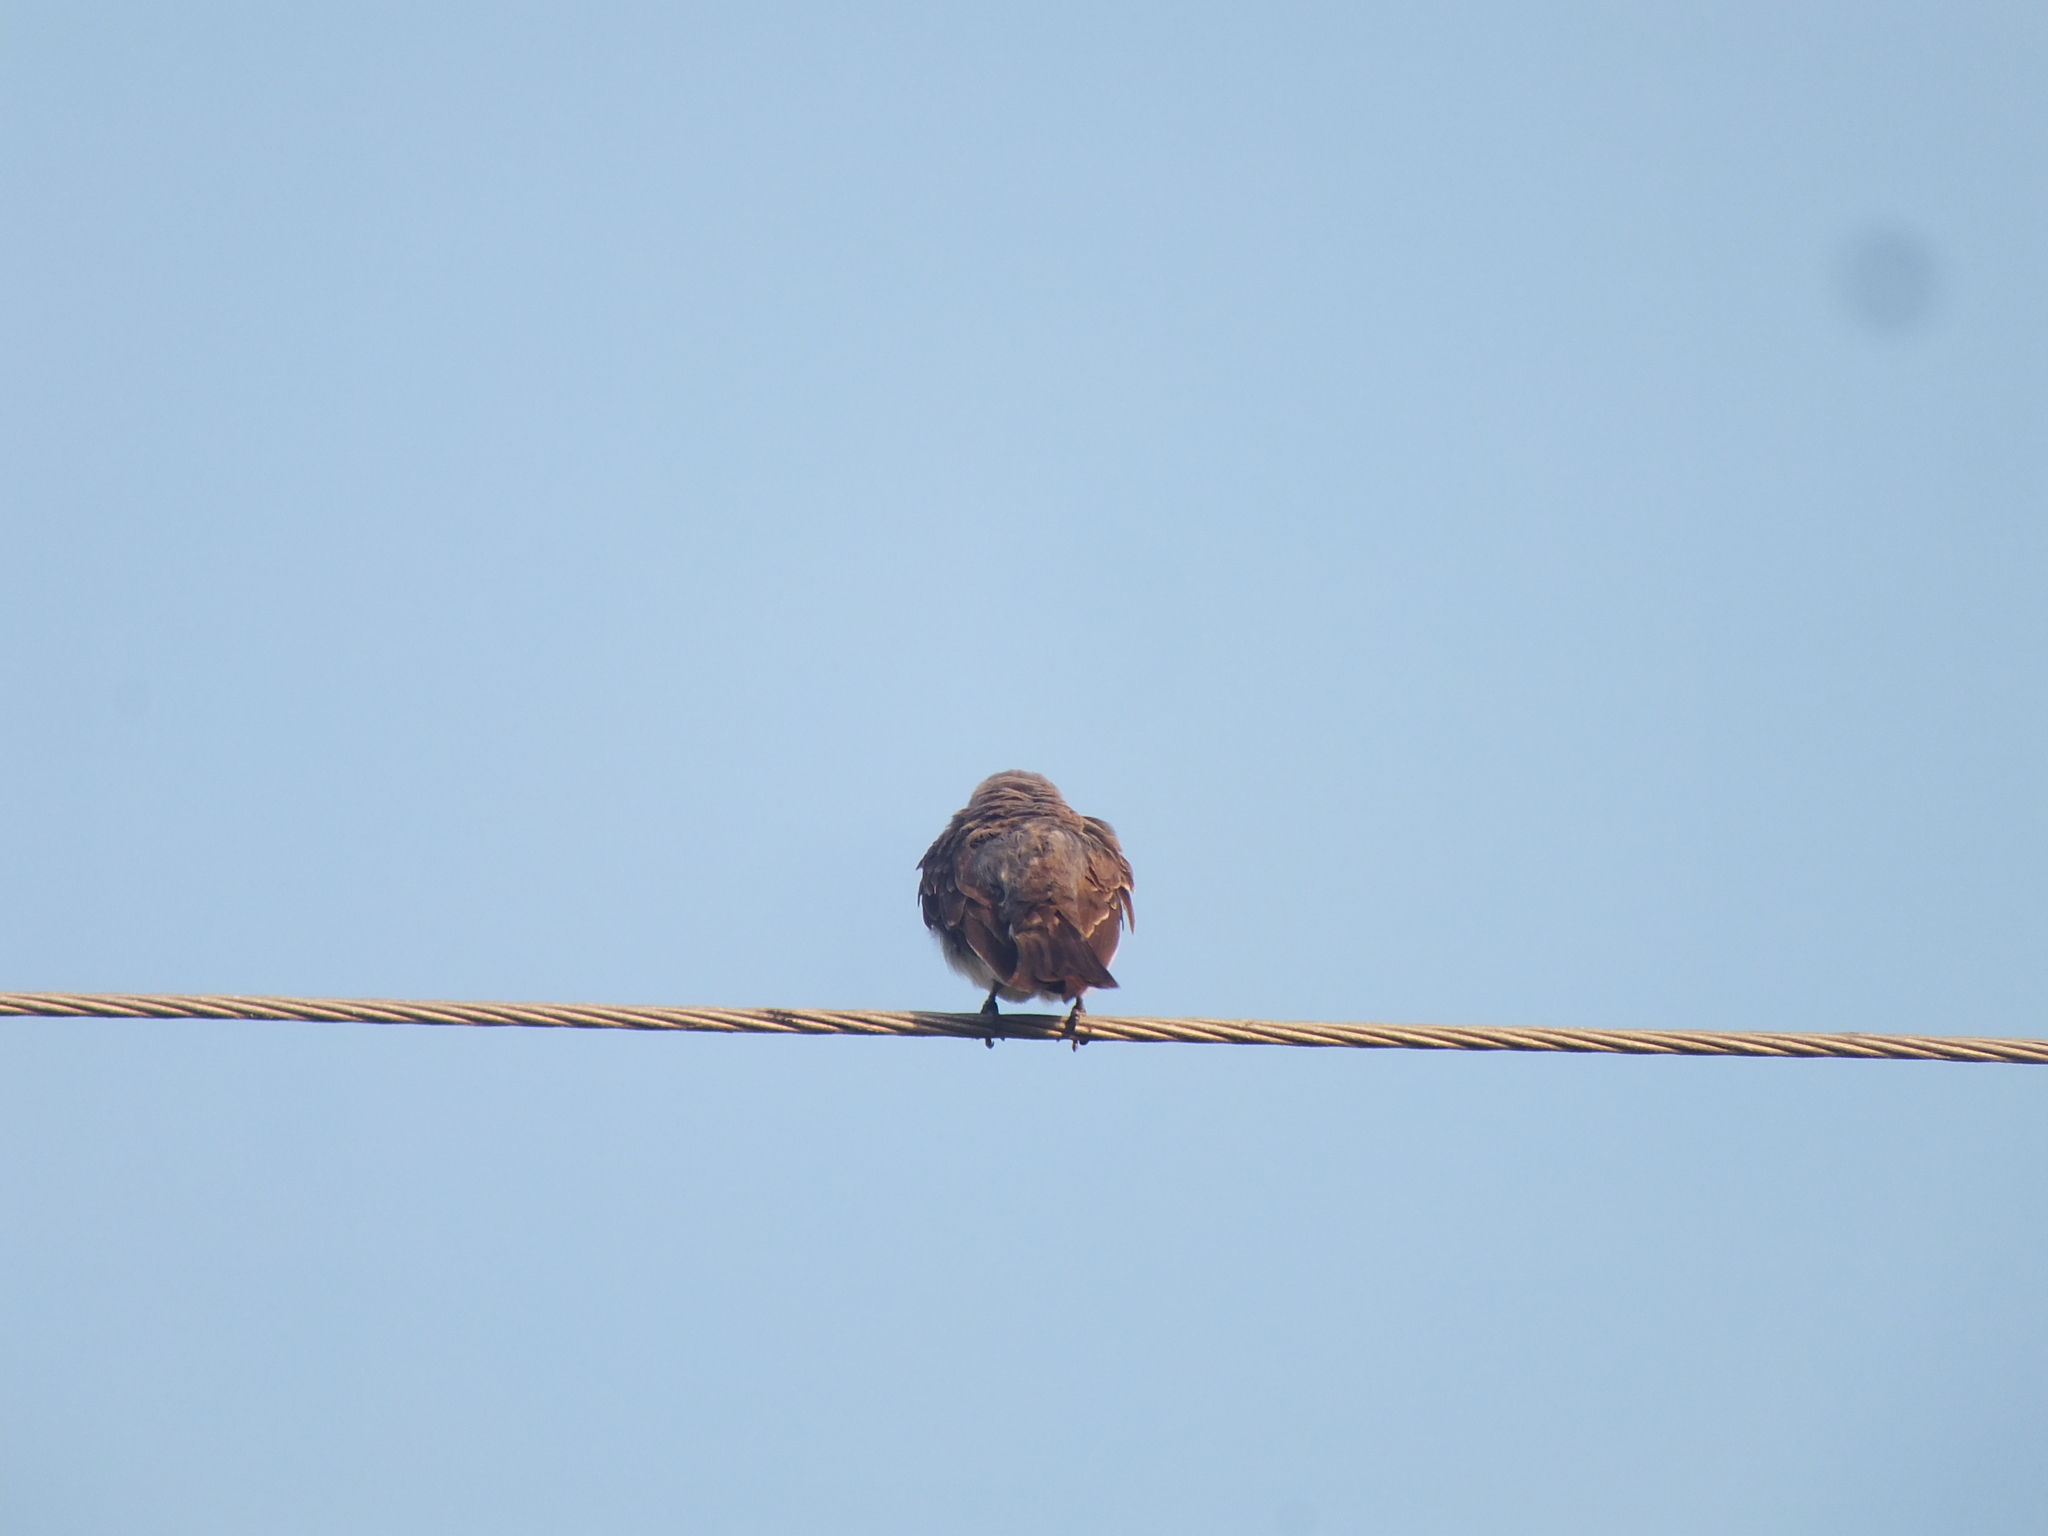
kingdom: Animalia
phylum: Chordata
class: Aves
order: Passeriformes
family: Tyrannidae
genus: Tyrannus
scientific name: Tyrannus dominicensis
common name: Gray kingbird
